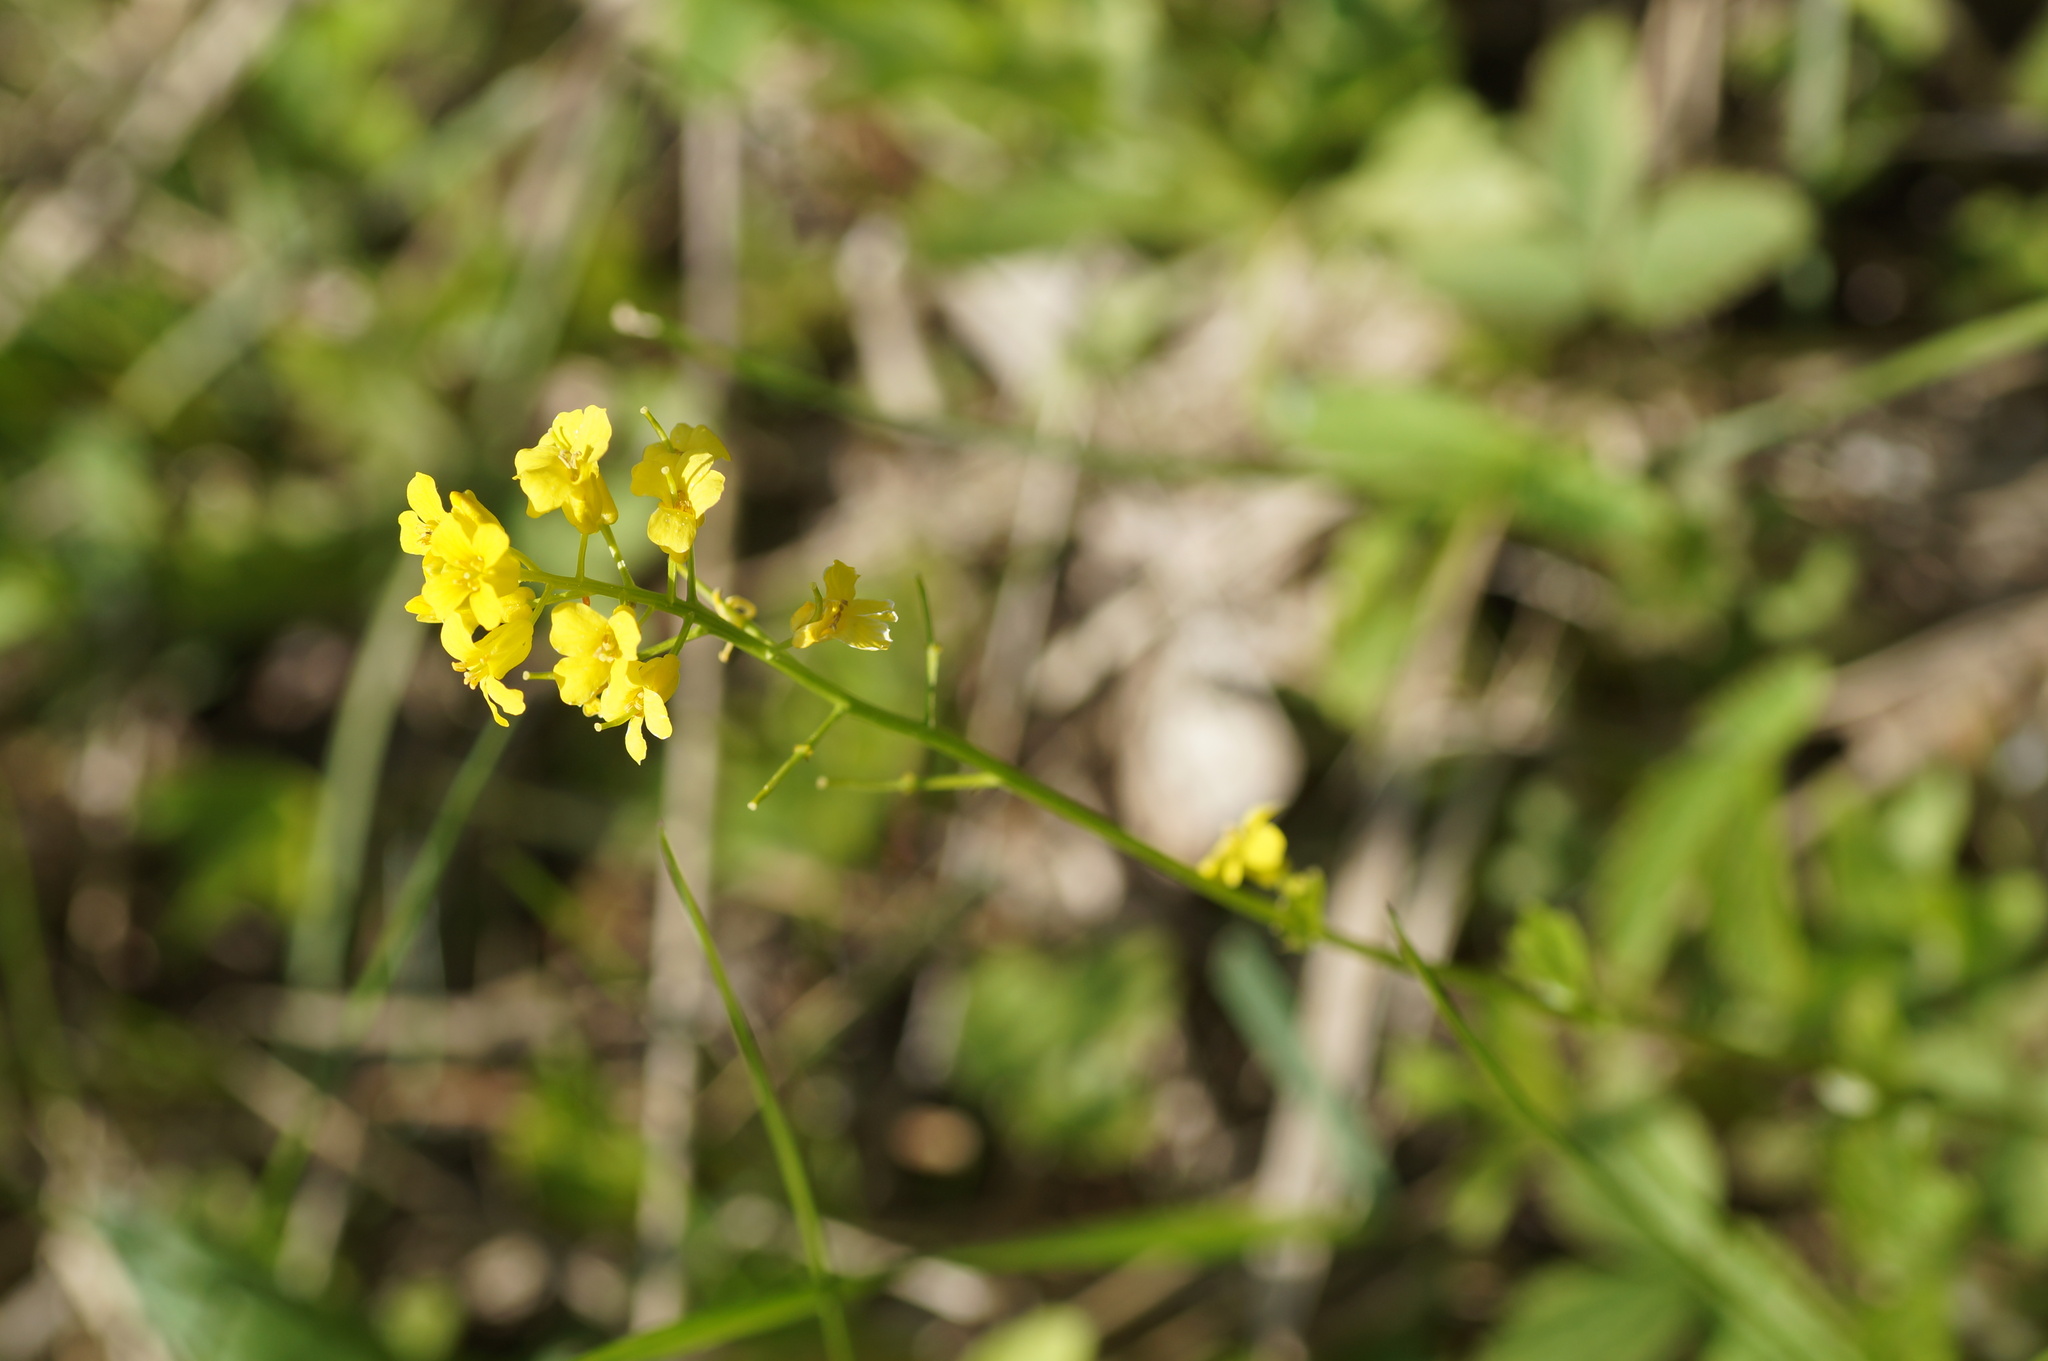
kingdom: Plantae
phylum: Tracheophyta
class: Magnoliopsida
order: Brassicales
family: Brassicaceae
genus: Barbarea
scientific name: Barbarea vulgaris
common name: Cressy-greens
